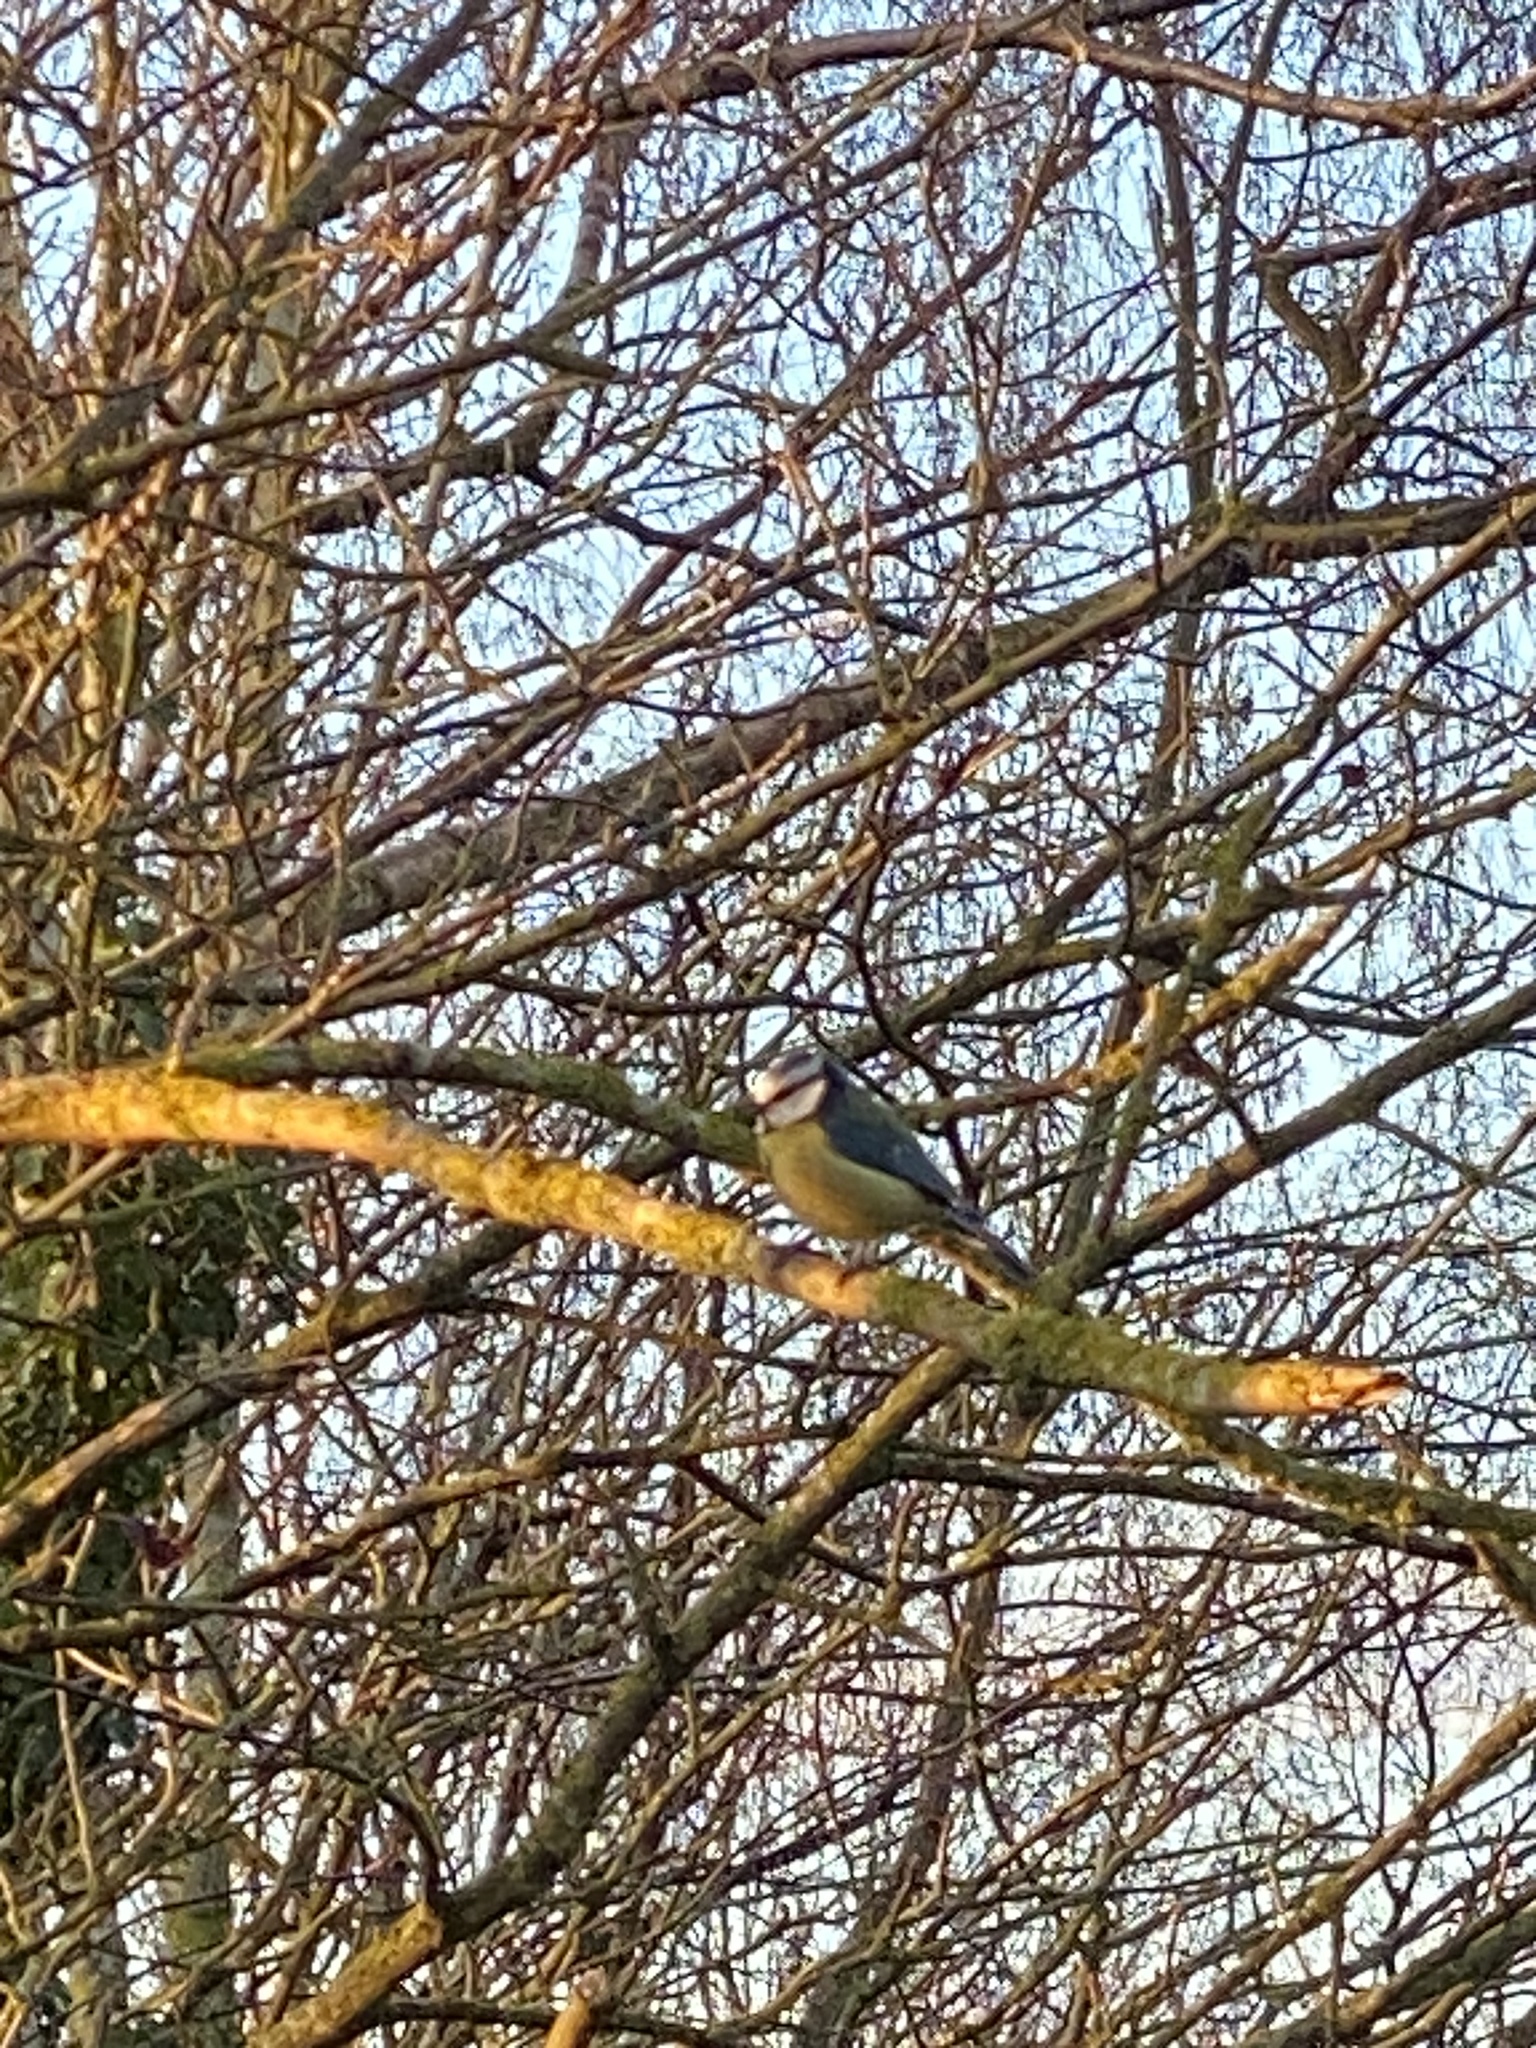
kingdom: Animalia
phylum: Chordata
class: Aves
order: Passeriformes
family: Paridae
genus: Cyanistes
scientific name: Cyanistes caeruleus
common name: Eurasian blue tit
